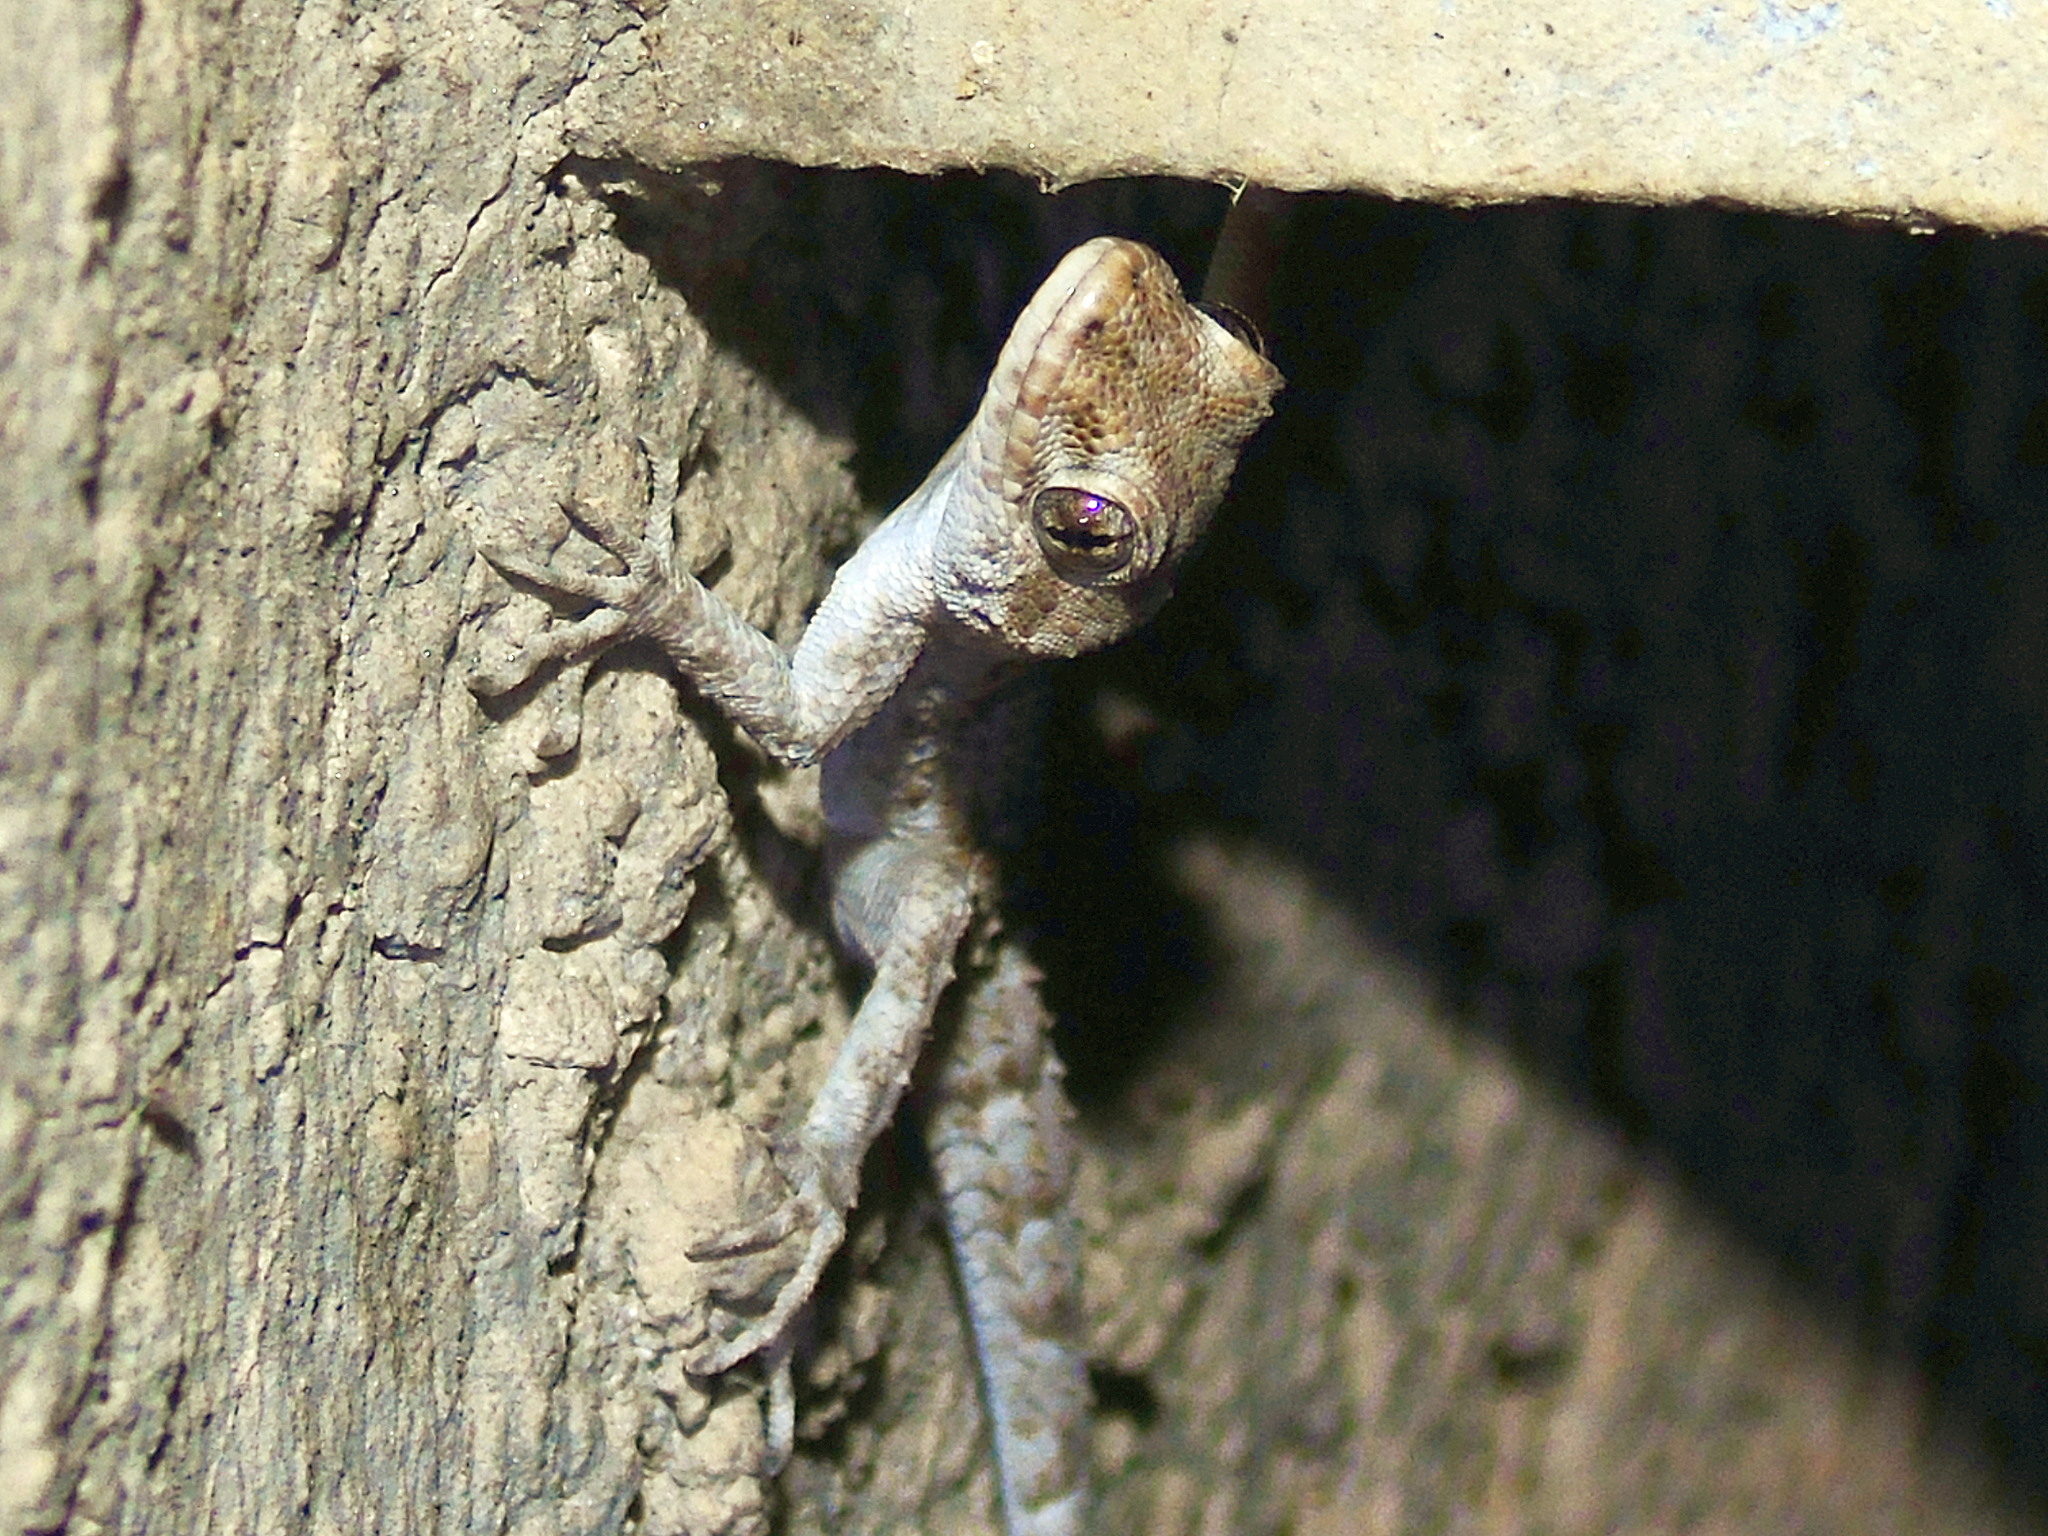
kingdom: Animalia
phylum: Chordata
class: Squamata
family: Gekkonidae
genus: Mediodactylus
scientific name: Mediodactylus kotschyi
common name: Kotschy's gecko
